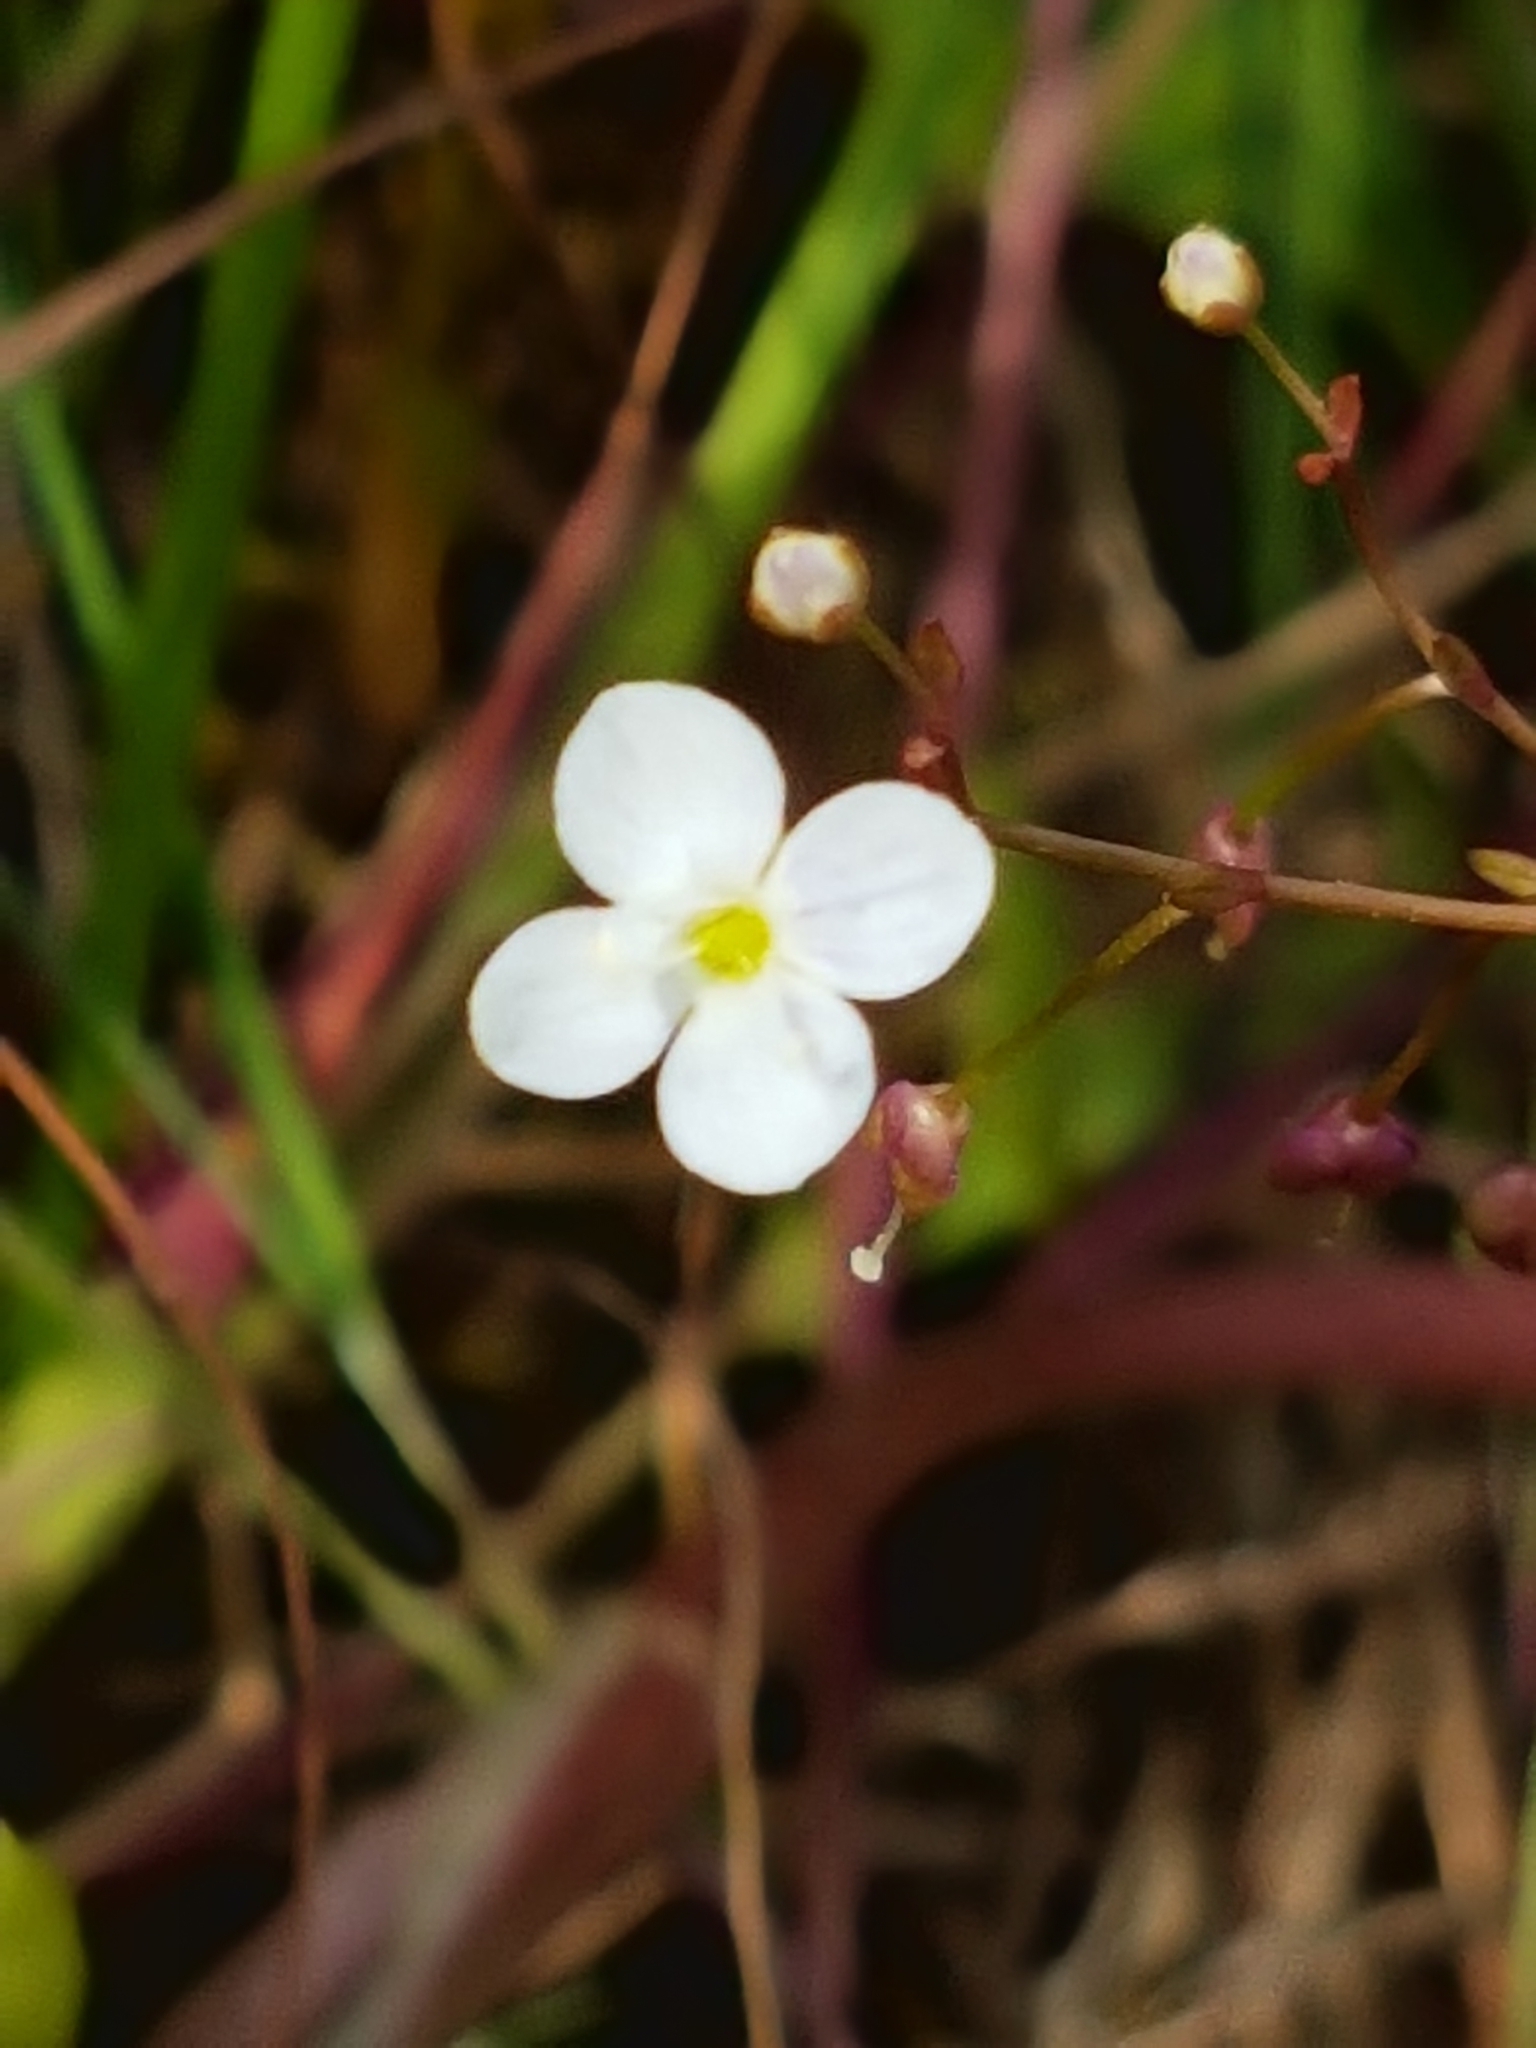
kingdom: Plantae
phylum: Tracheophyta
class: Magnoliopsida
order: Lamiales
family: Plantaginaceae
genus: Veronica
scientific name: Veronica scutellata
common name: Marsh speedwell
